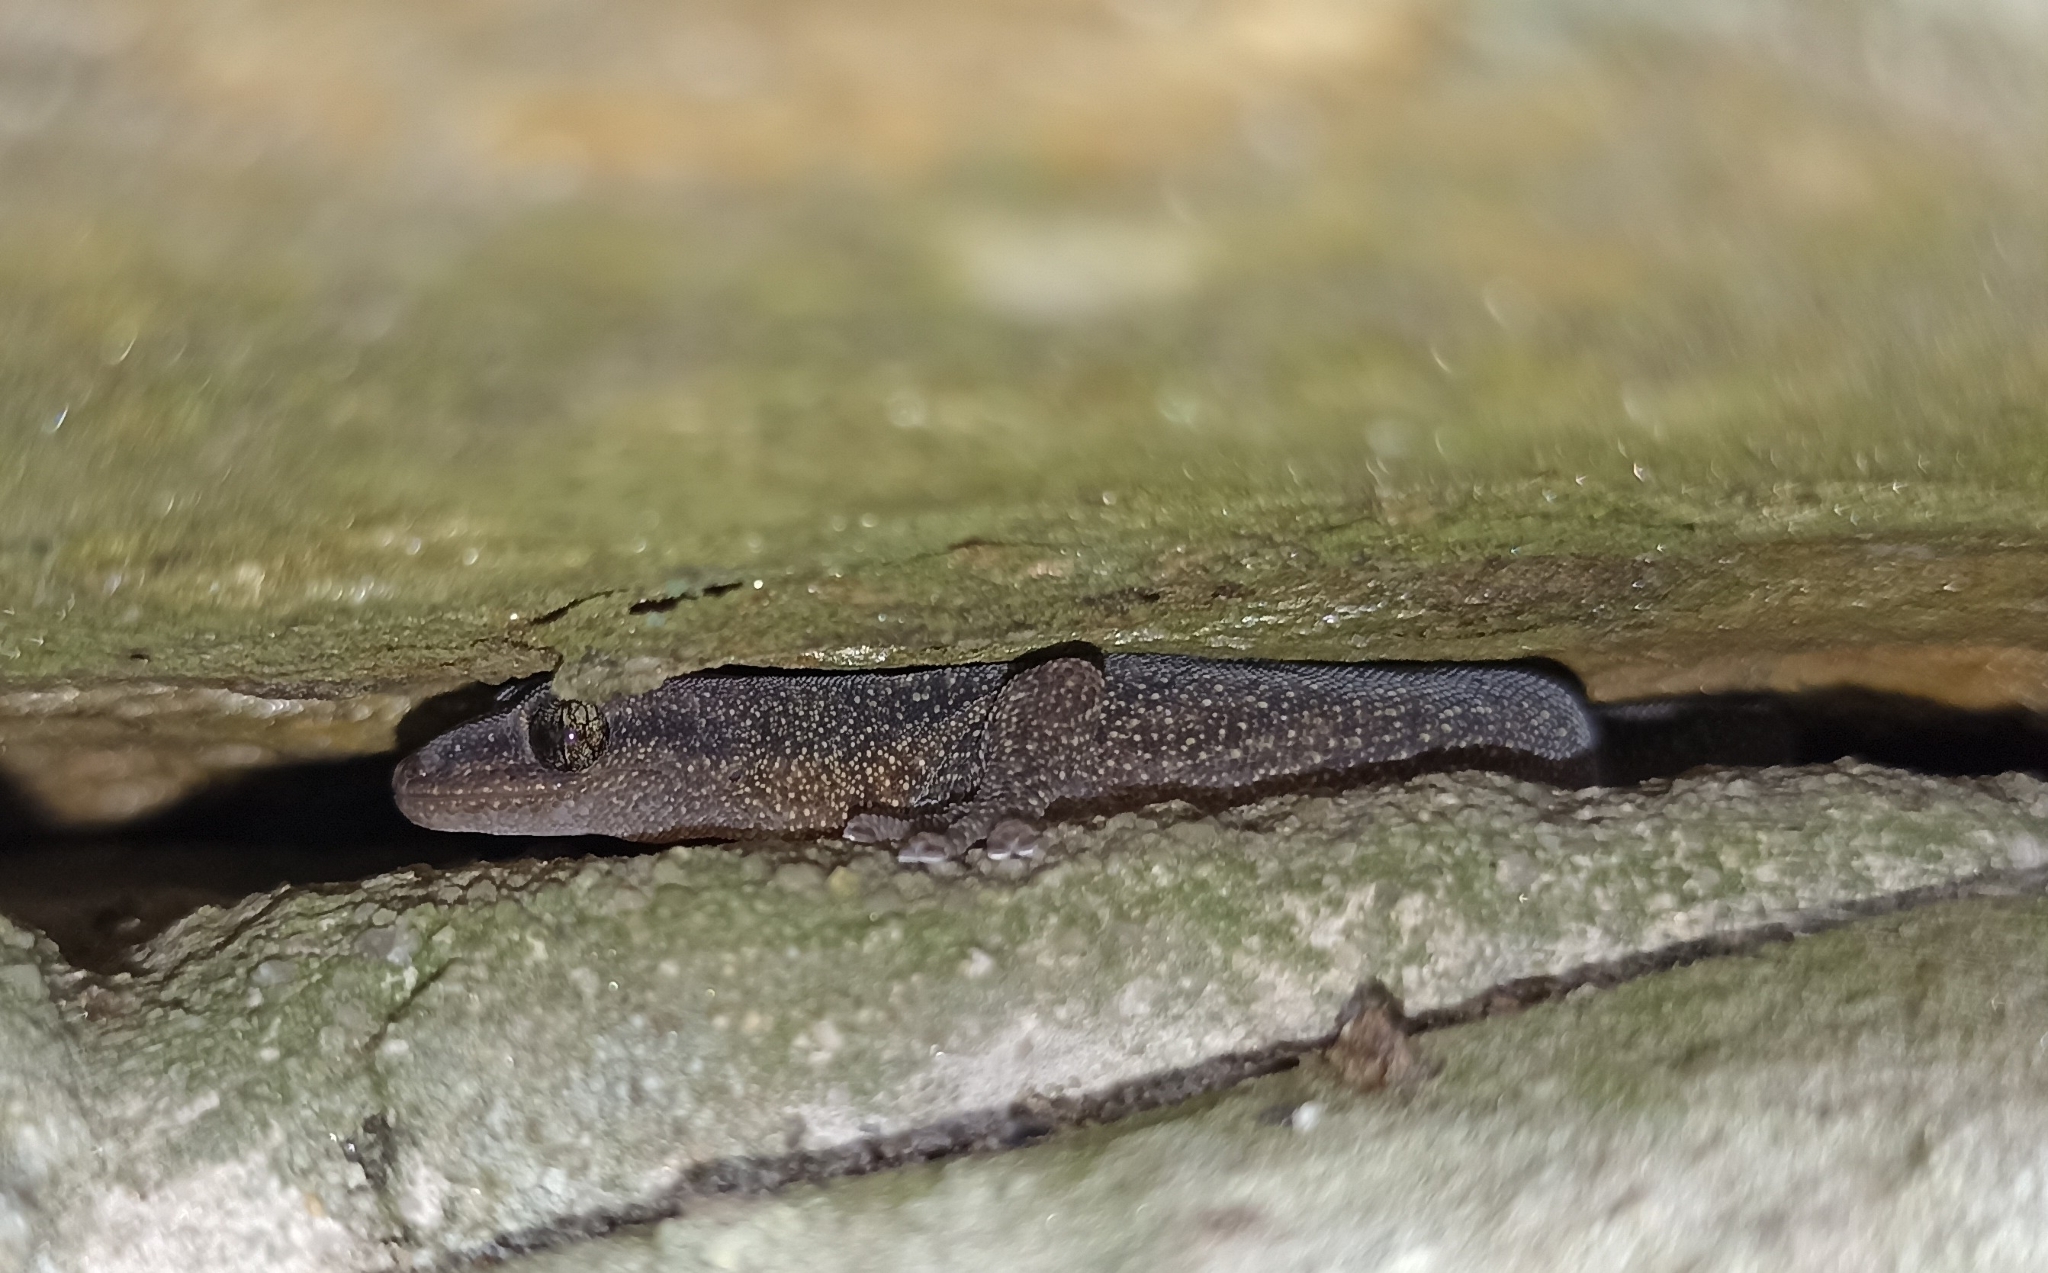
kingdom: Animalia
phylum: Chordata
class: Squamata
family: Sphaerodactylidae
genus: Euleptes
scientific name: Euleptes europaea
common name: English common name not available
